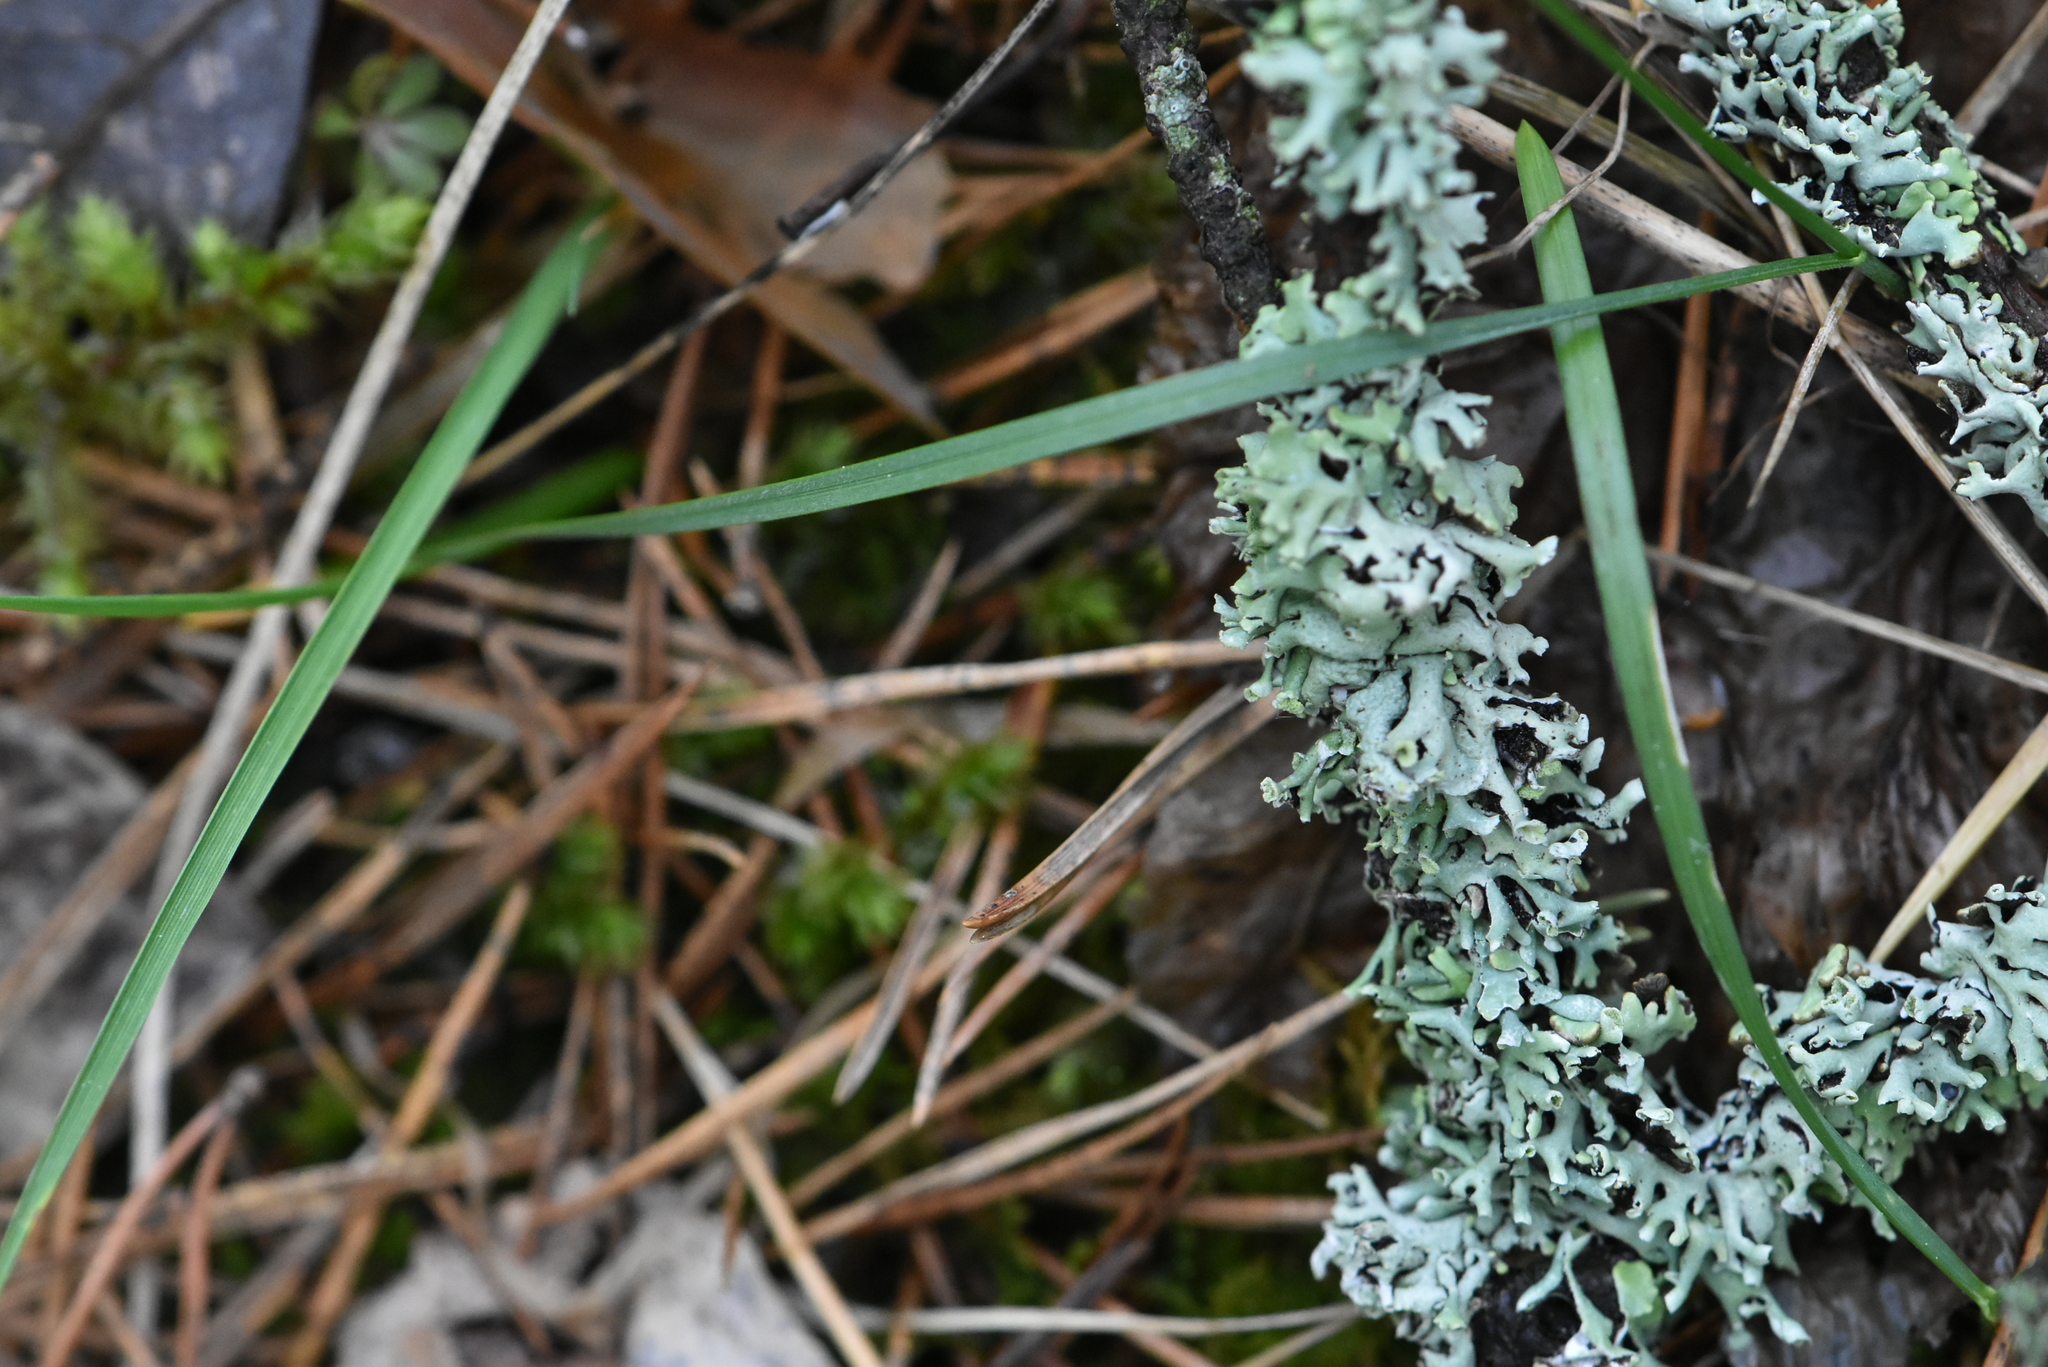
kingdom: Fungi
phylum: Ascomycota
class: Lecanoromycetes
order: Lecanorales
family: Parmeliaceae
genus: Hypogymnia
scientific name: Hypogymnia physodes
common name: Dark crottle
